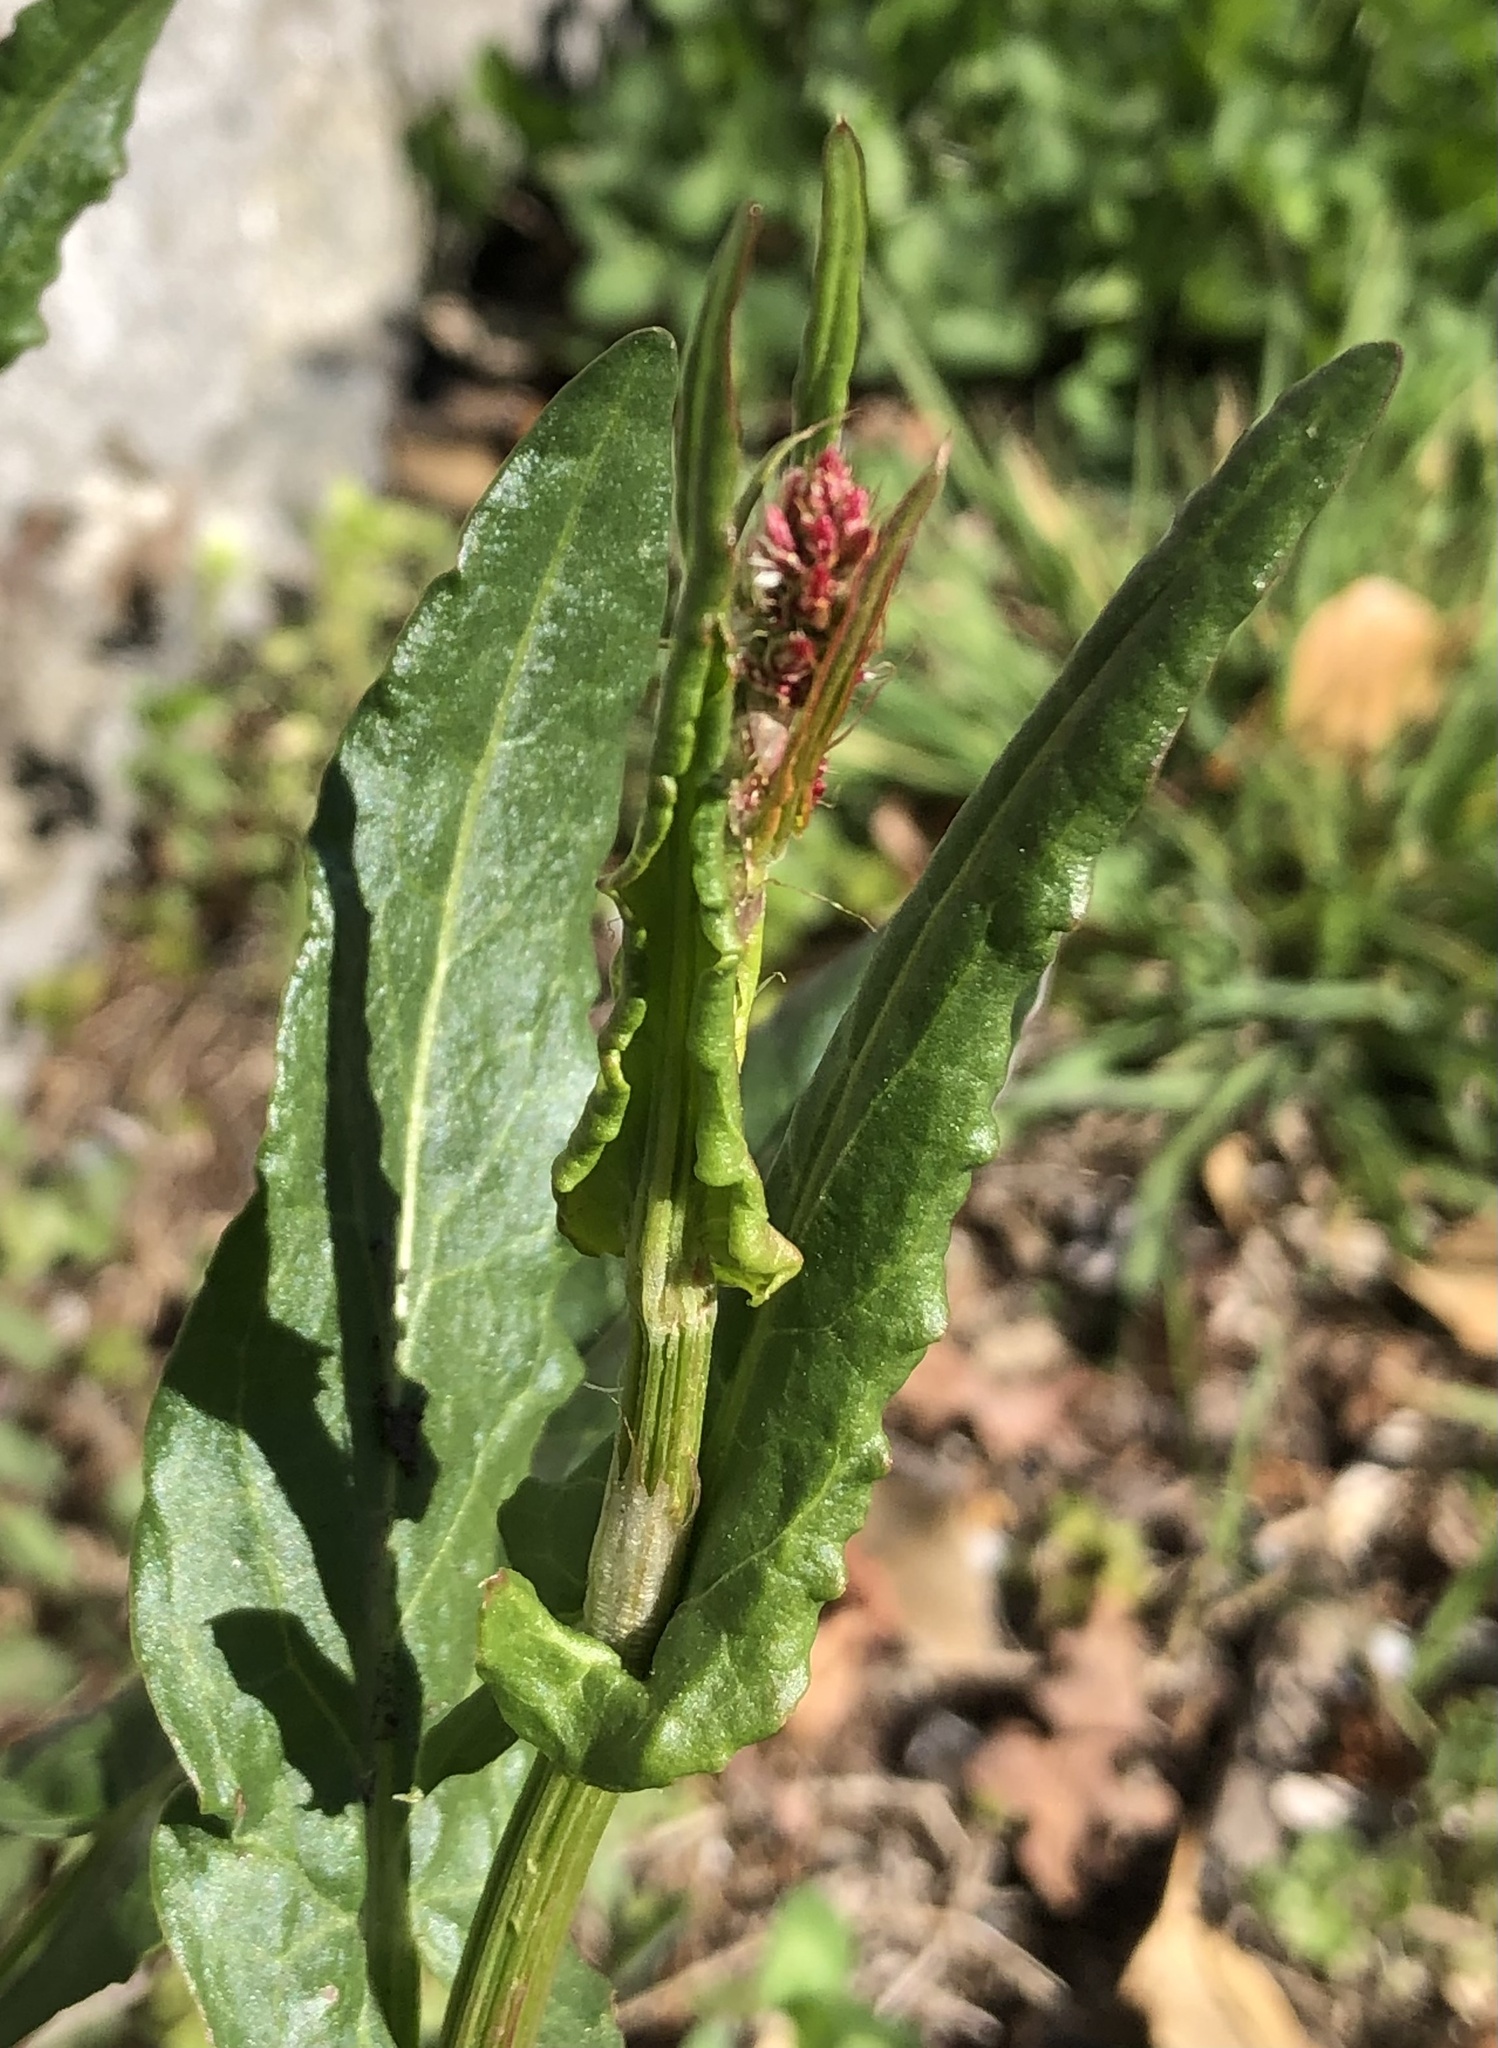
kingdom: Plantae
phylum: Tracheophyta
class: Magnoliopsida
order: Caryophyllales
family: Polygonaceae
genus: Rumex
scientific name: Rumex acetosa
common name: Garden sorrel
